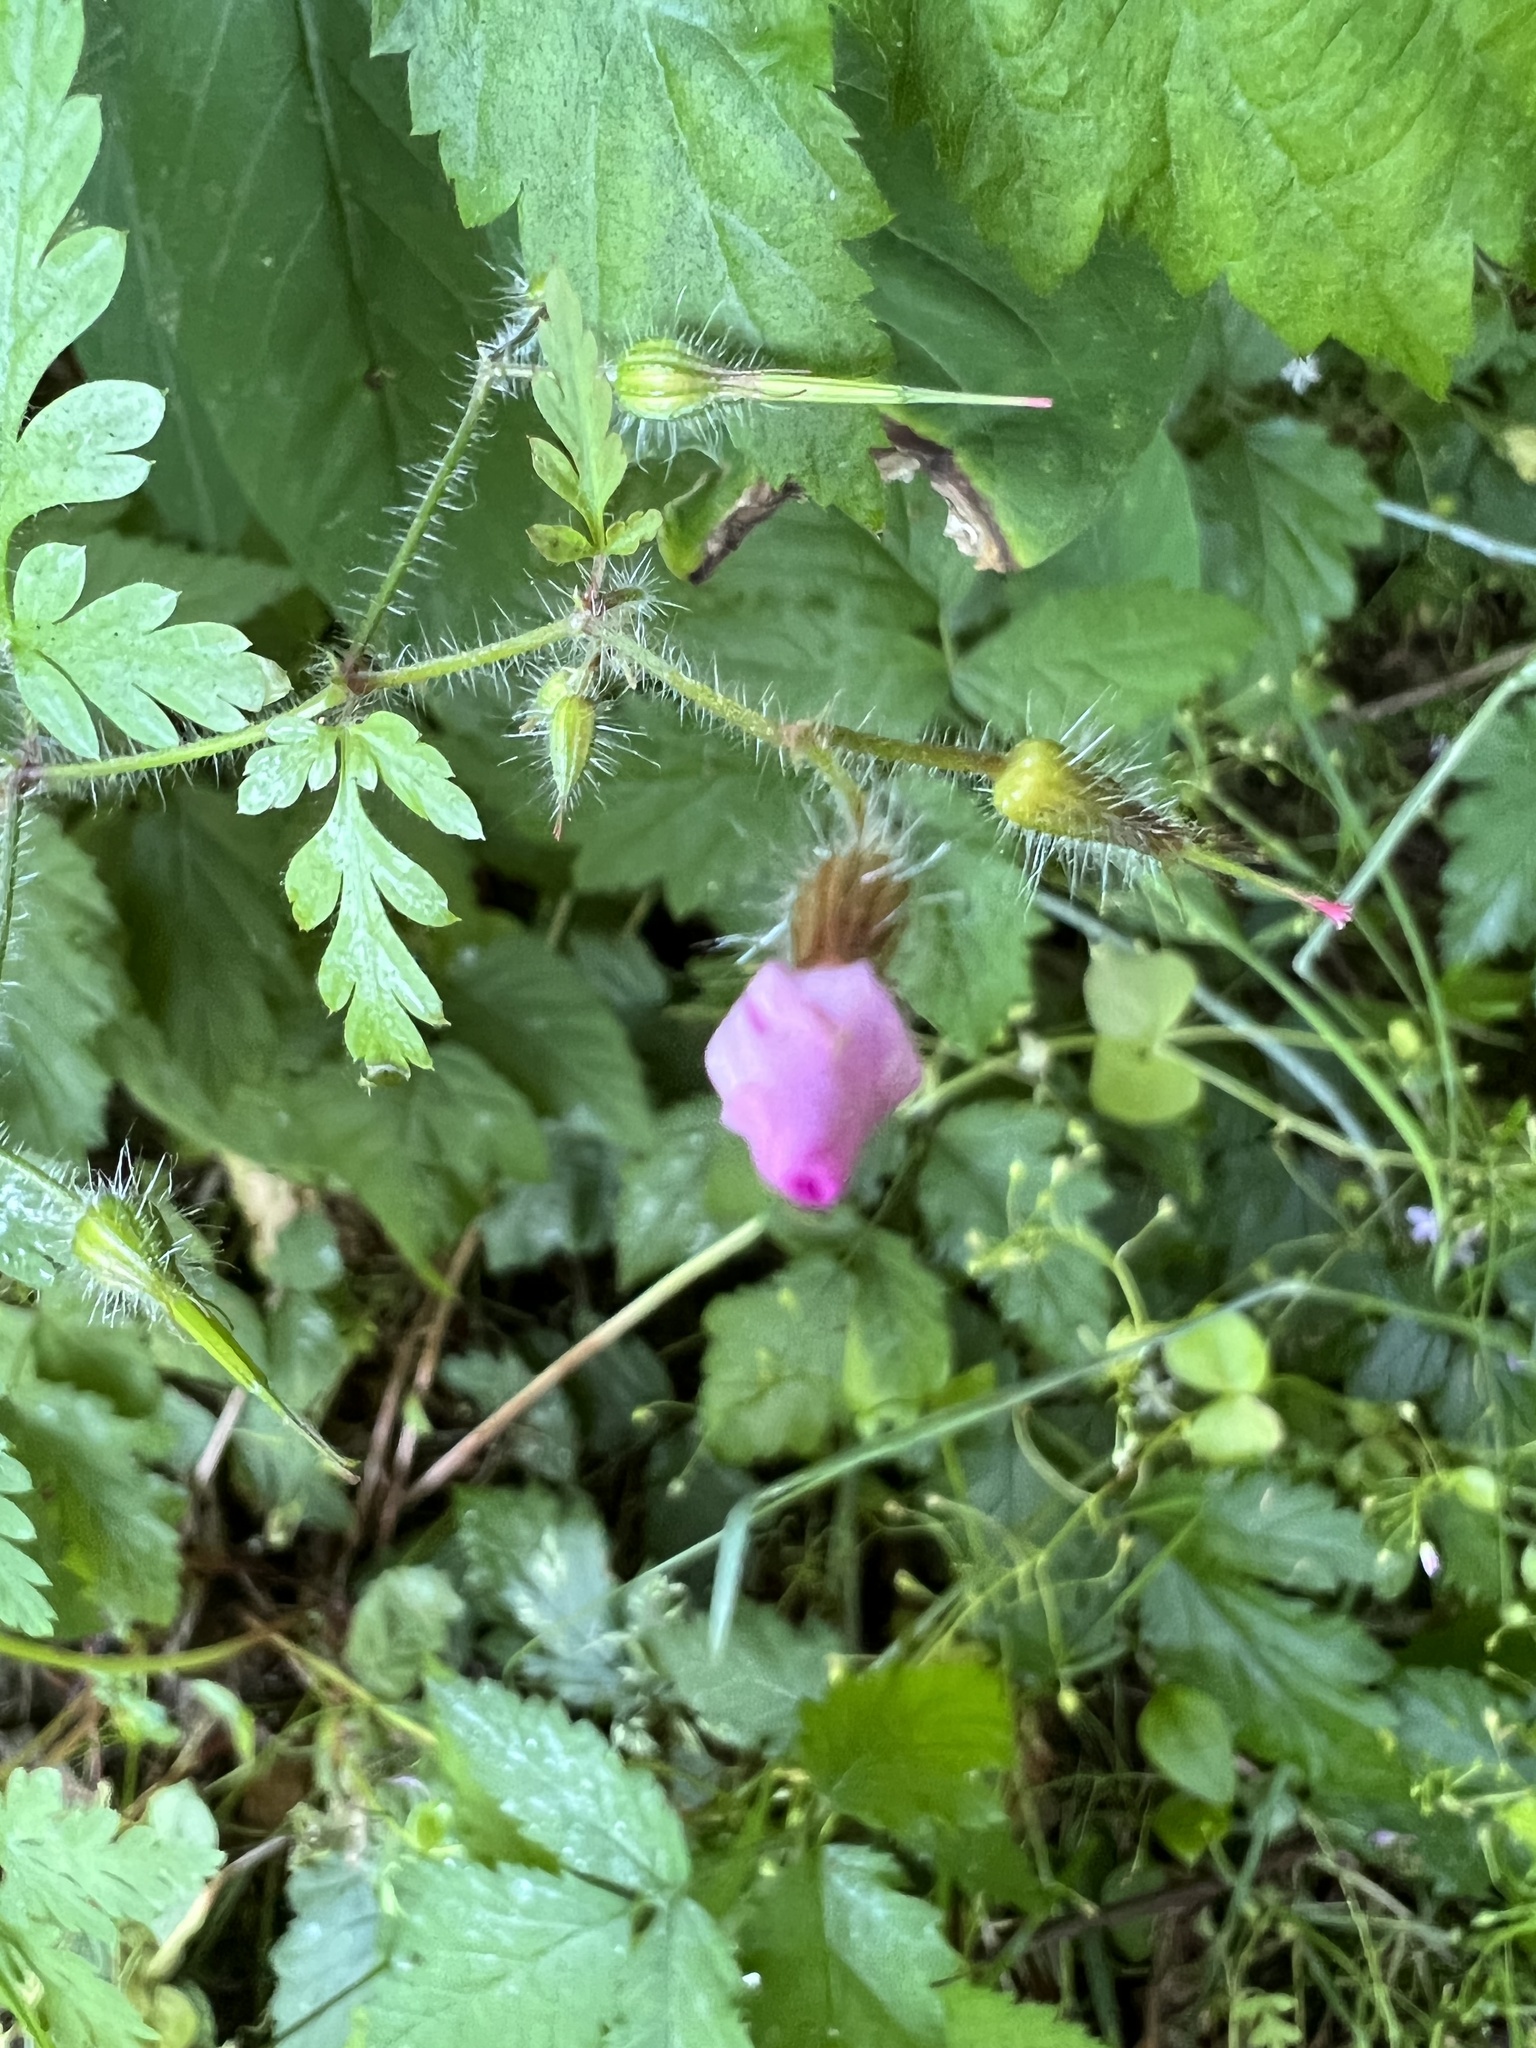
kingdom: Plantae
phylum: Tracheophyta
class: Magnoliopsida
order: Geraniales
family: Geraniaceae
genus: Geranium
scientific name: Geranium robertianum
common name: Herb-robert
